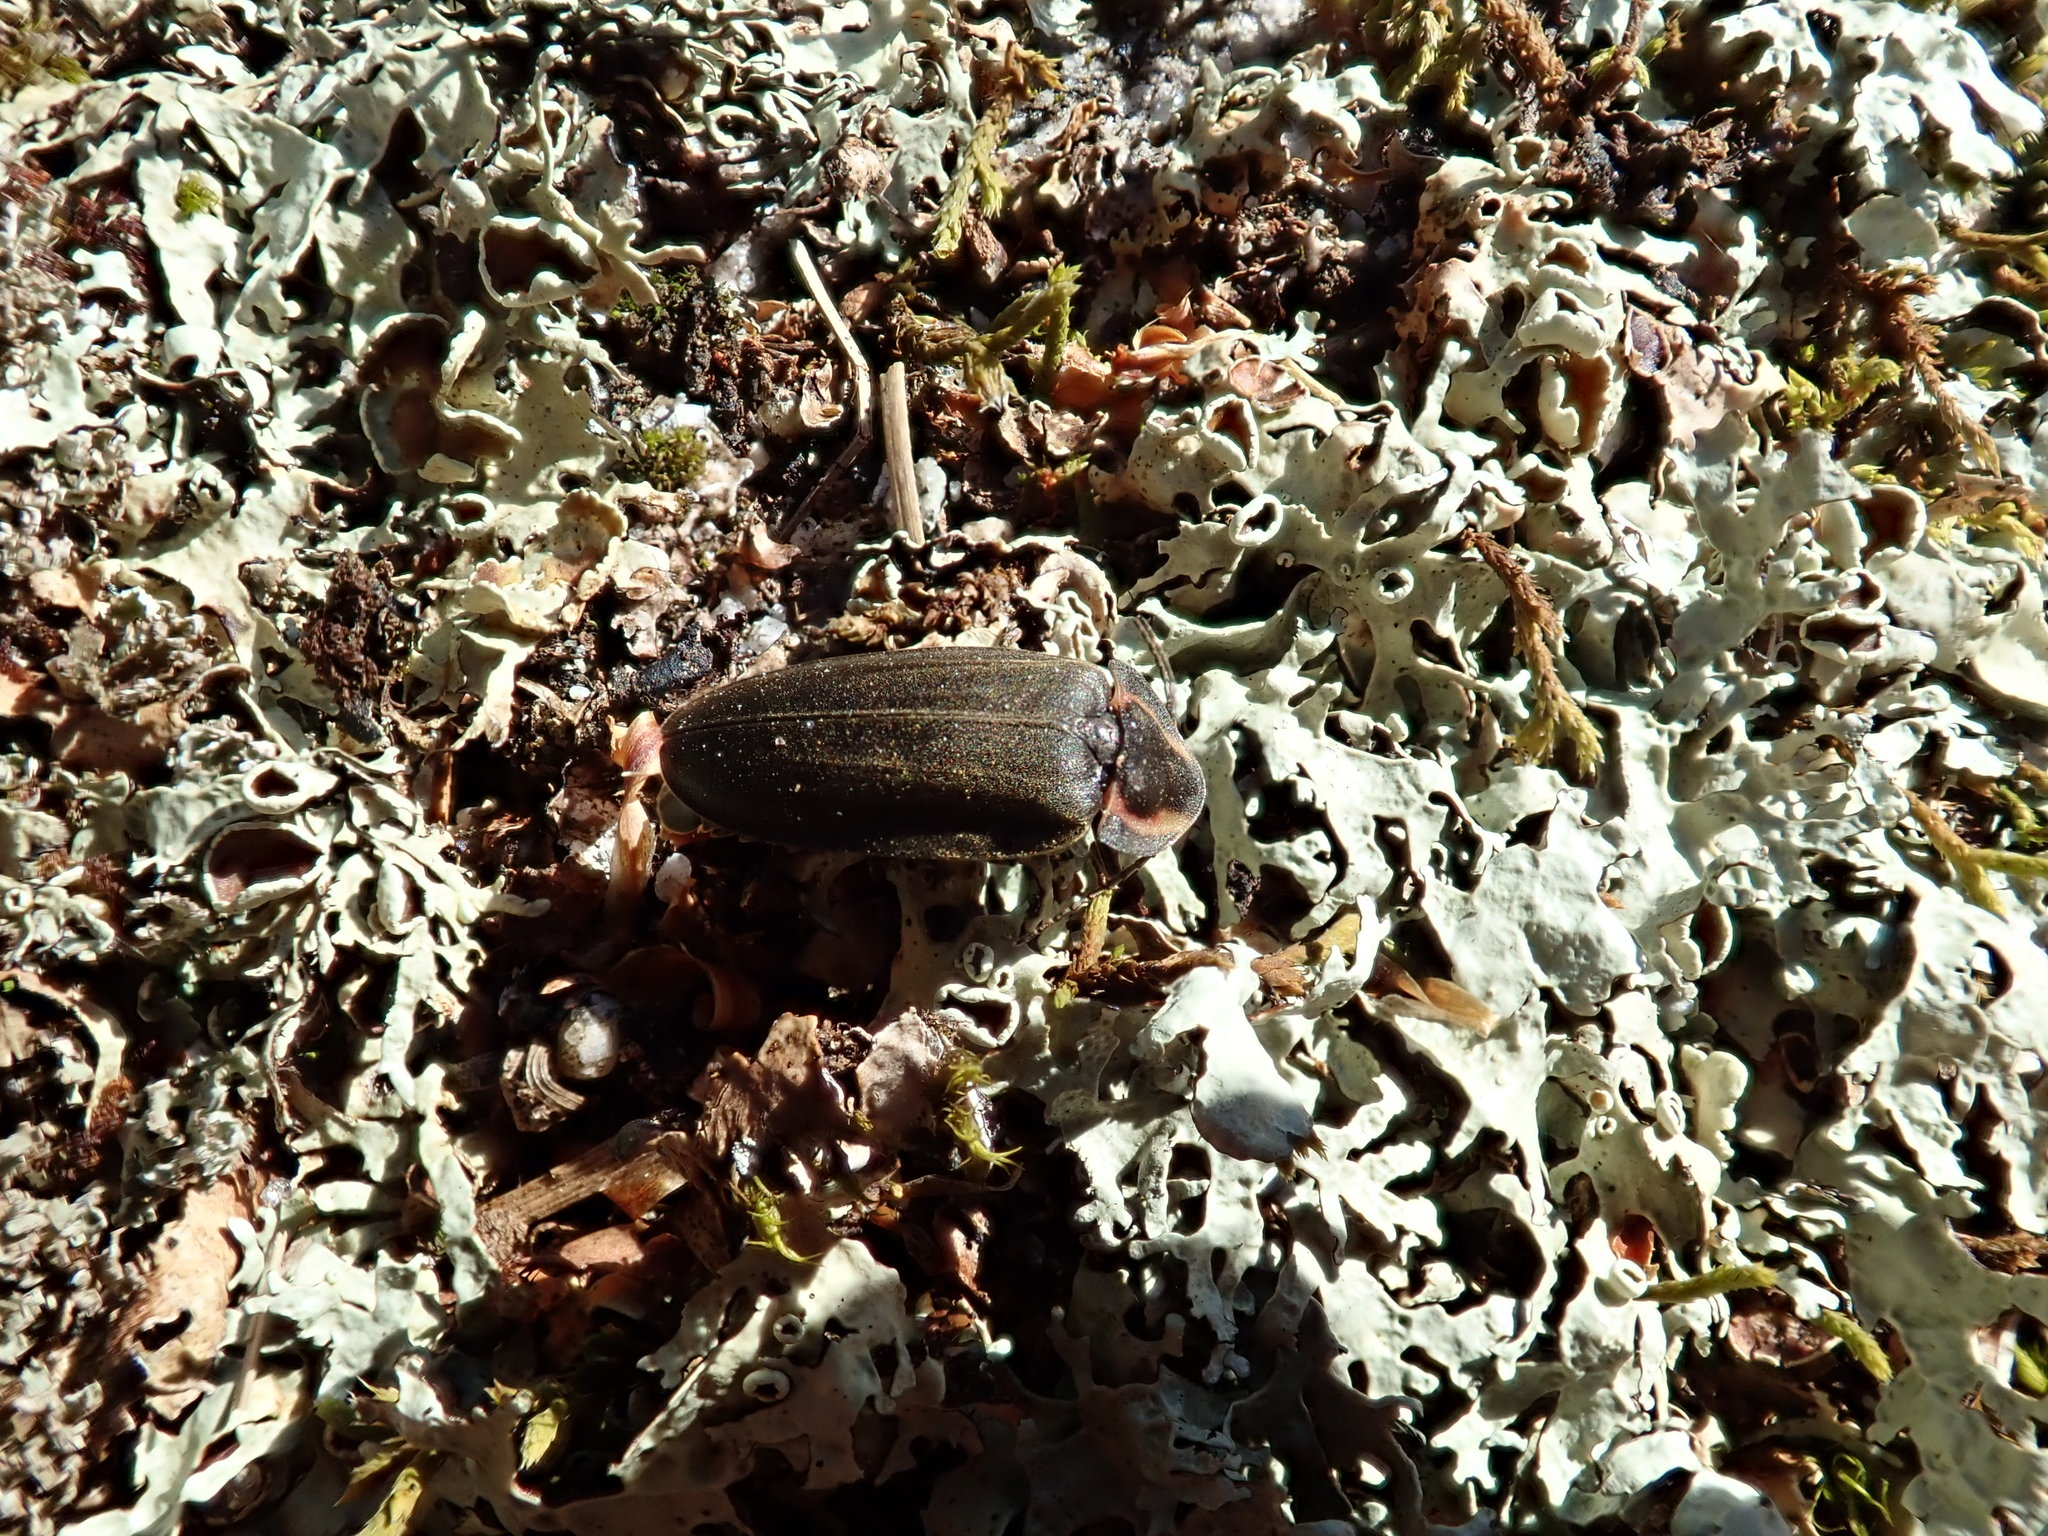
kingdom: Animalia
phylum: Arthropoda
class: Insecta
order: Coleoptera
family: Lampyridae
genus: Photinus
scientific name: Photinus corrusca
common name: Winter firefly
